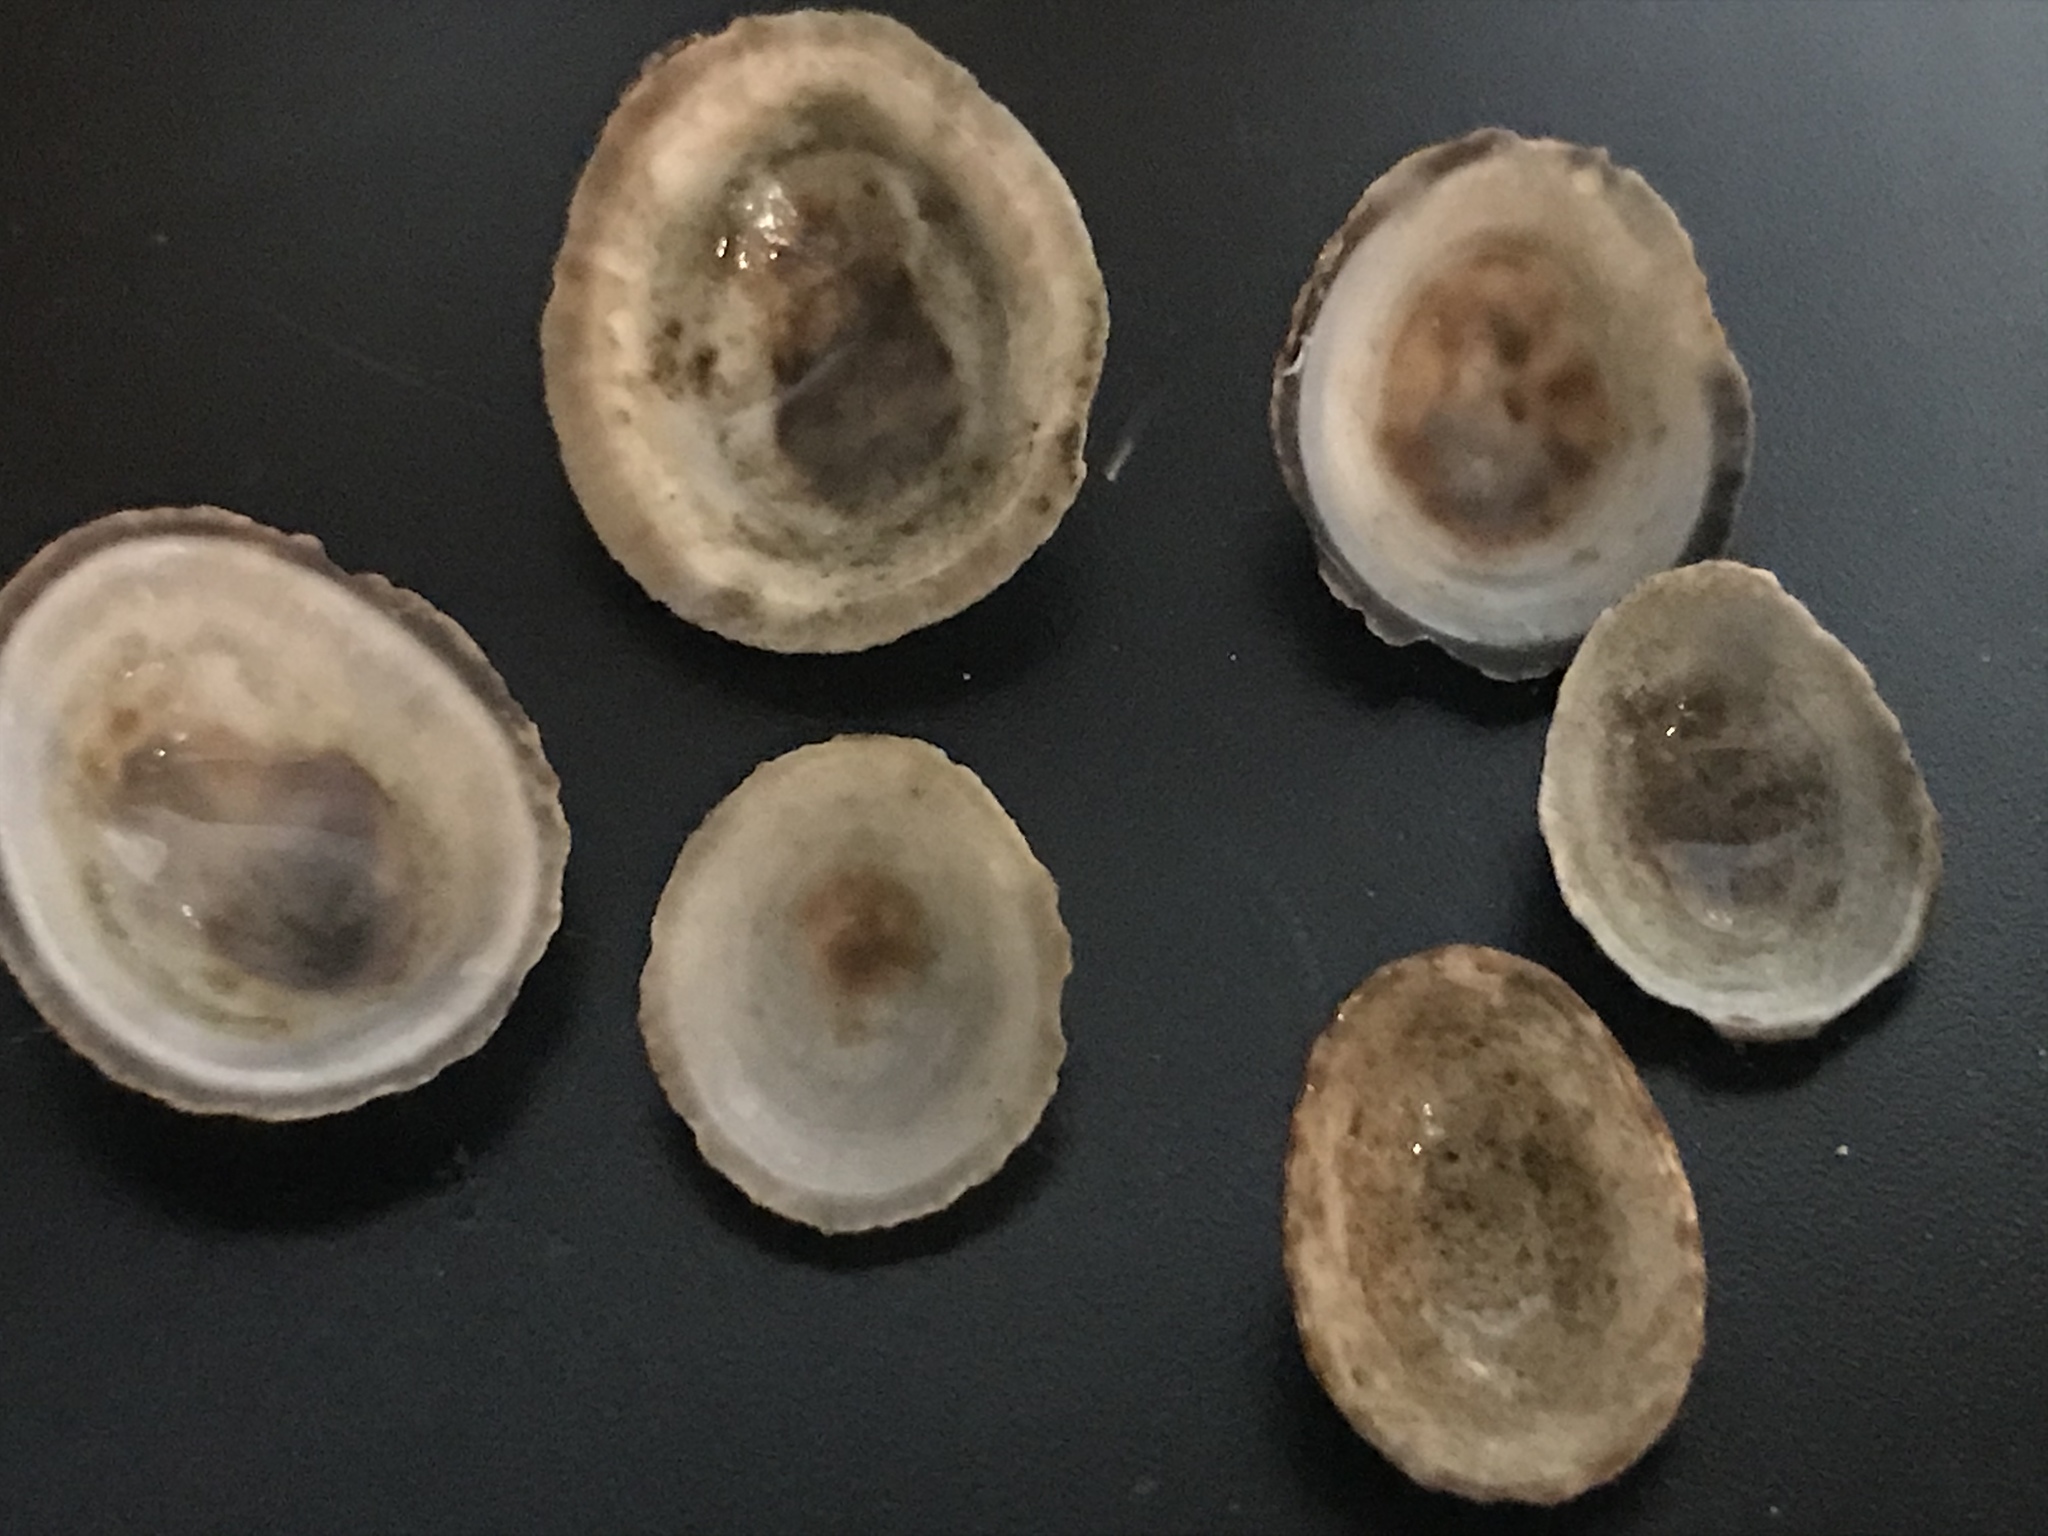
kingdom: Animalia
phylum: Mollusca
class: Gastropoda
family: Lottiidae
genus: Lottia
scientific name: Lottia limatula
